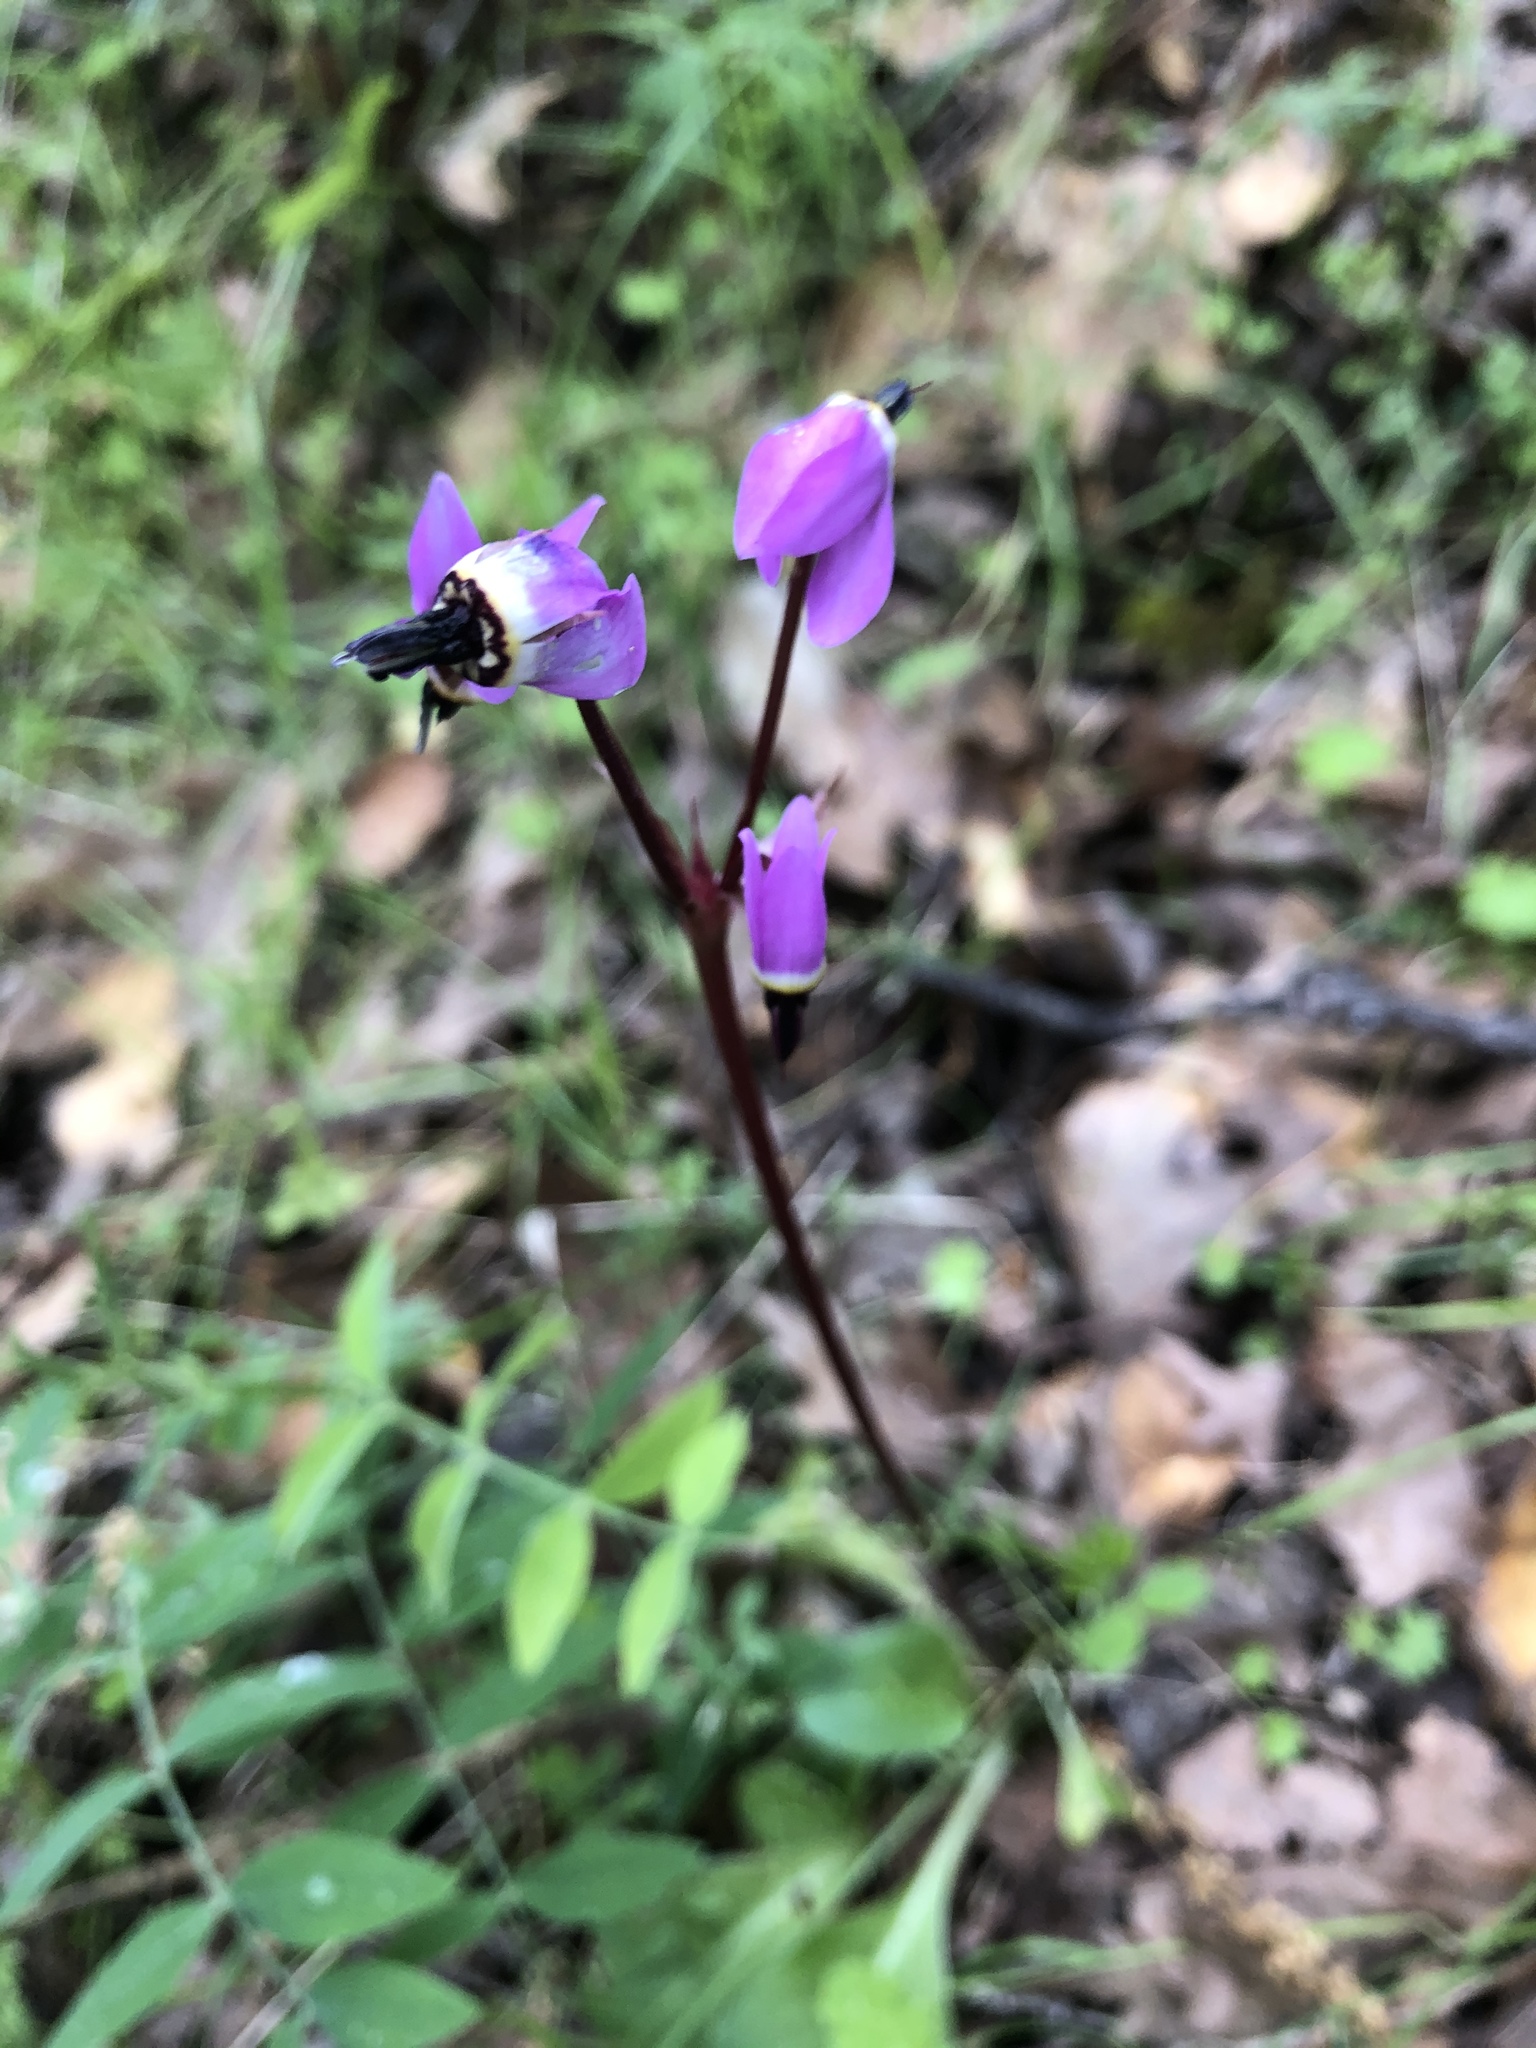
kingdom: Plantae
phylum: Tracheophyta
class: Magnoliopsida
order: Ericales
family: Primulaceae
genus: Dodecatheon
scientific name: Dodecatheon hendersonii
